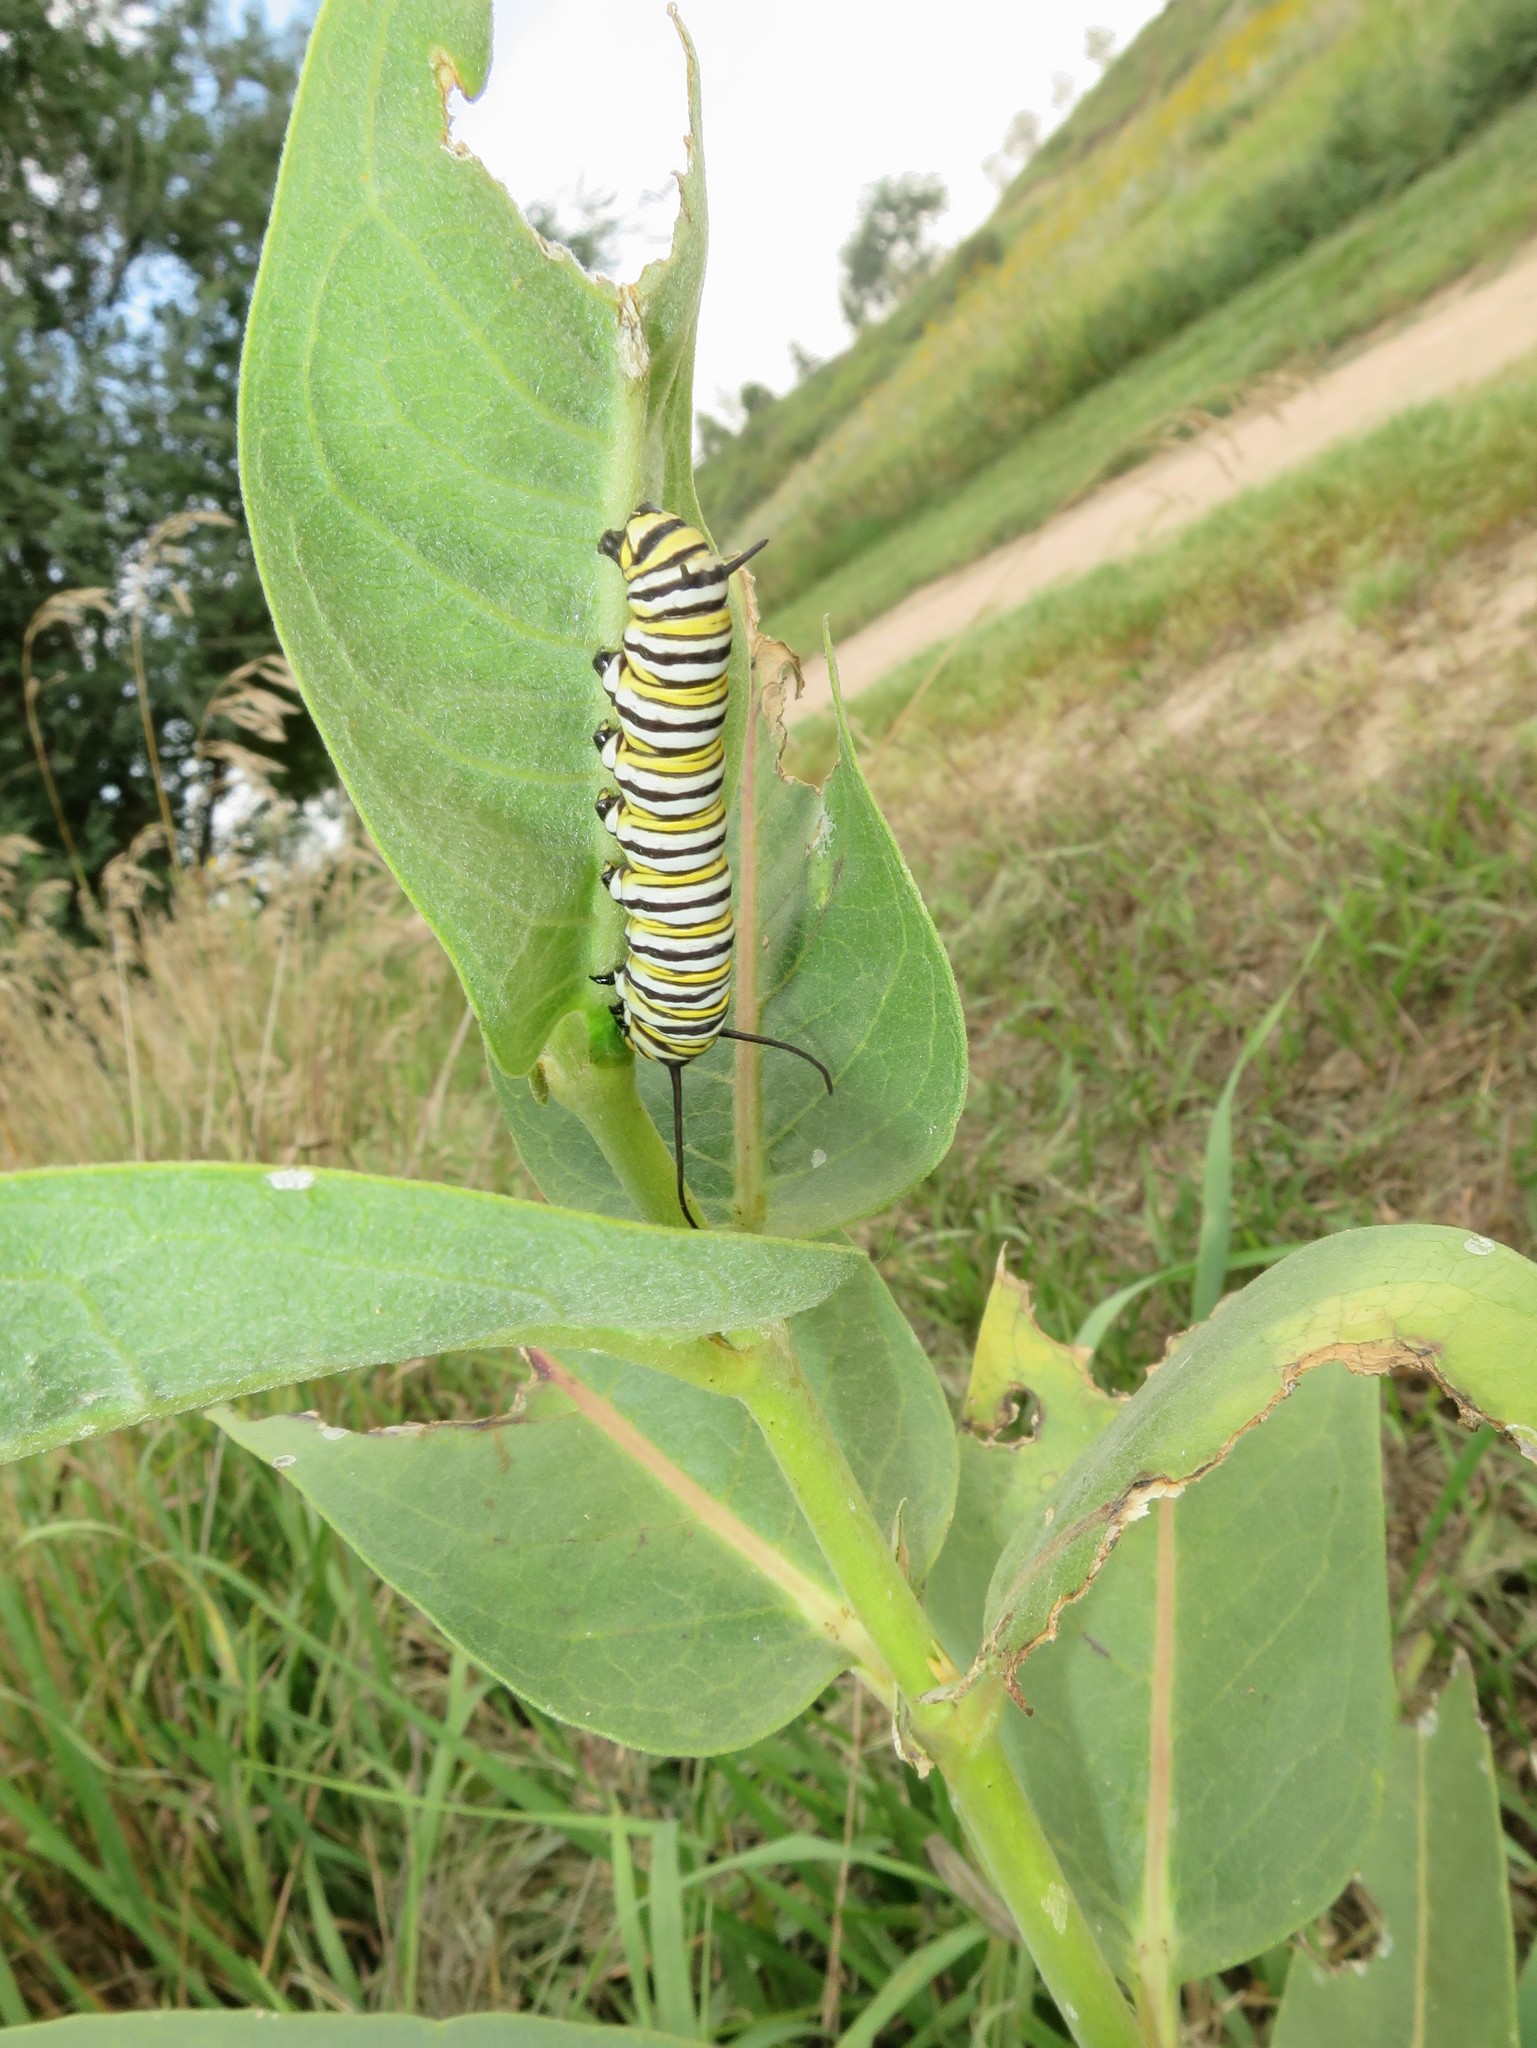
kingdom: Animalia
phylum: Arthropoda
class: Insecta
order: Lepidoptera
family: Nymphalidae
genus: Danaus
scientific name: Danaus plexippus
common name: Monarch
